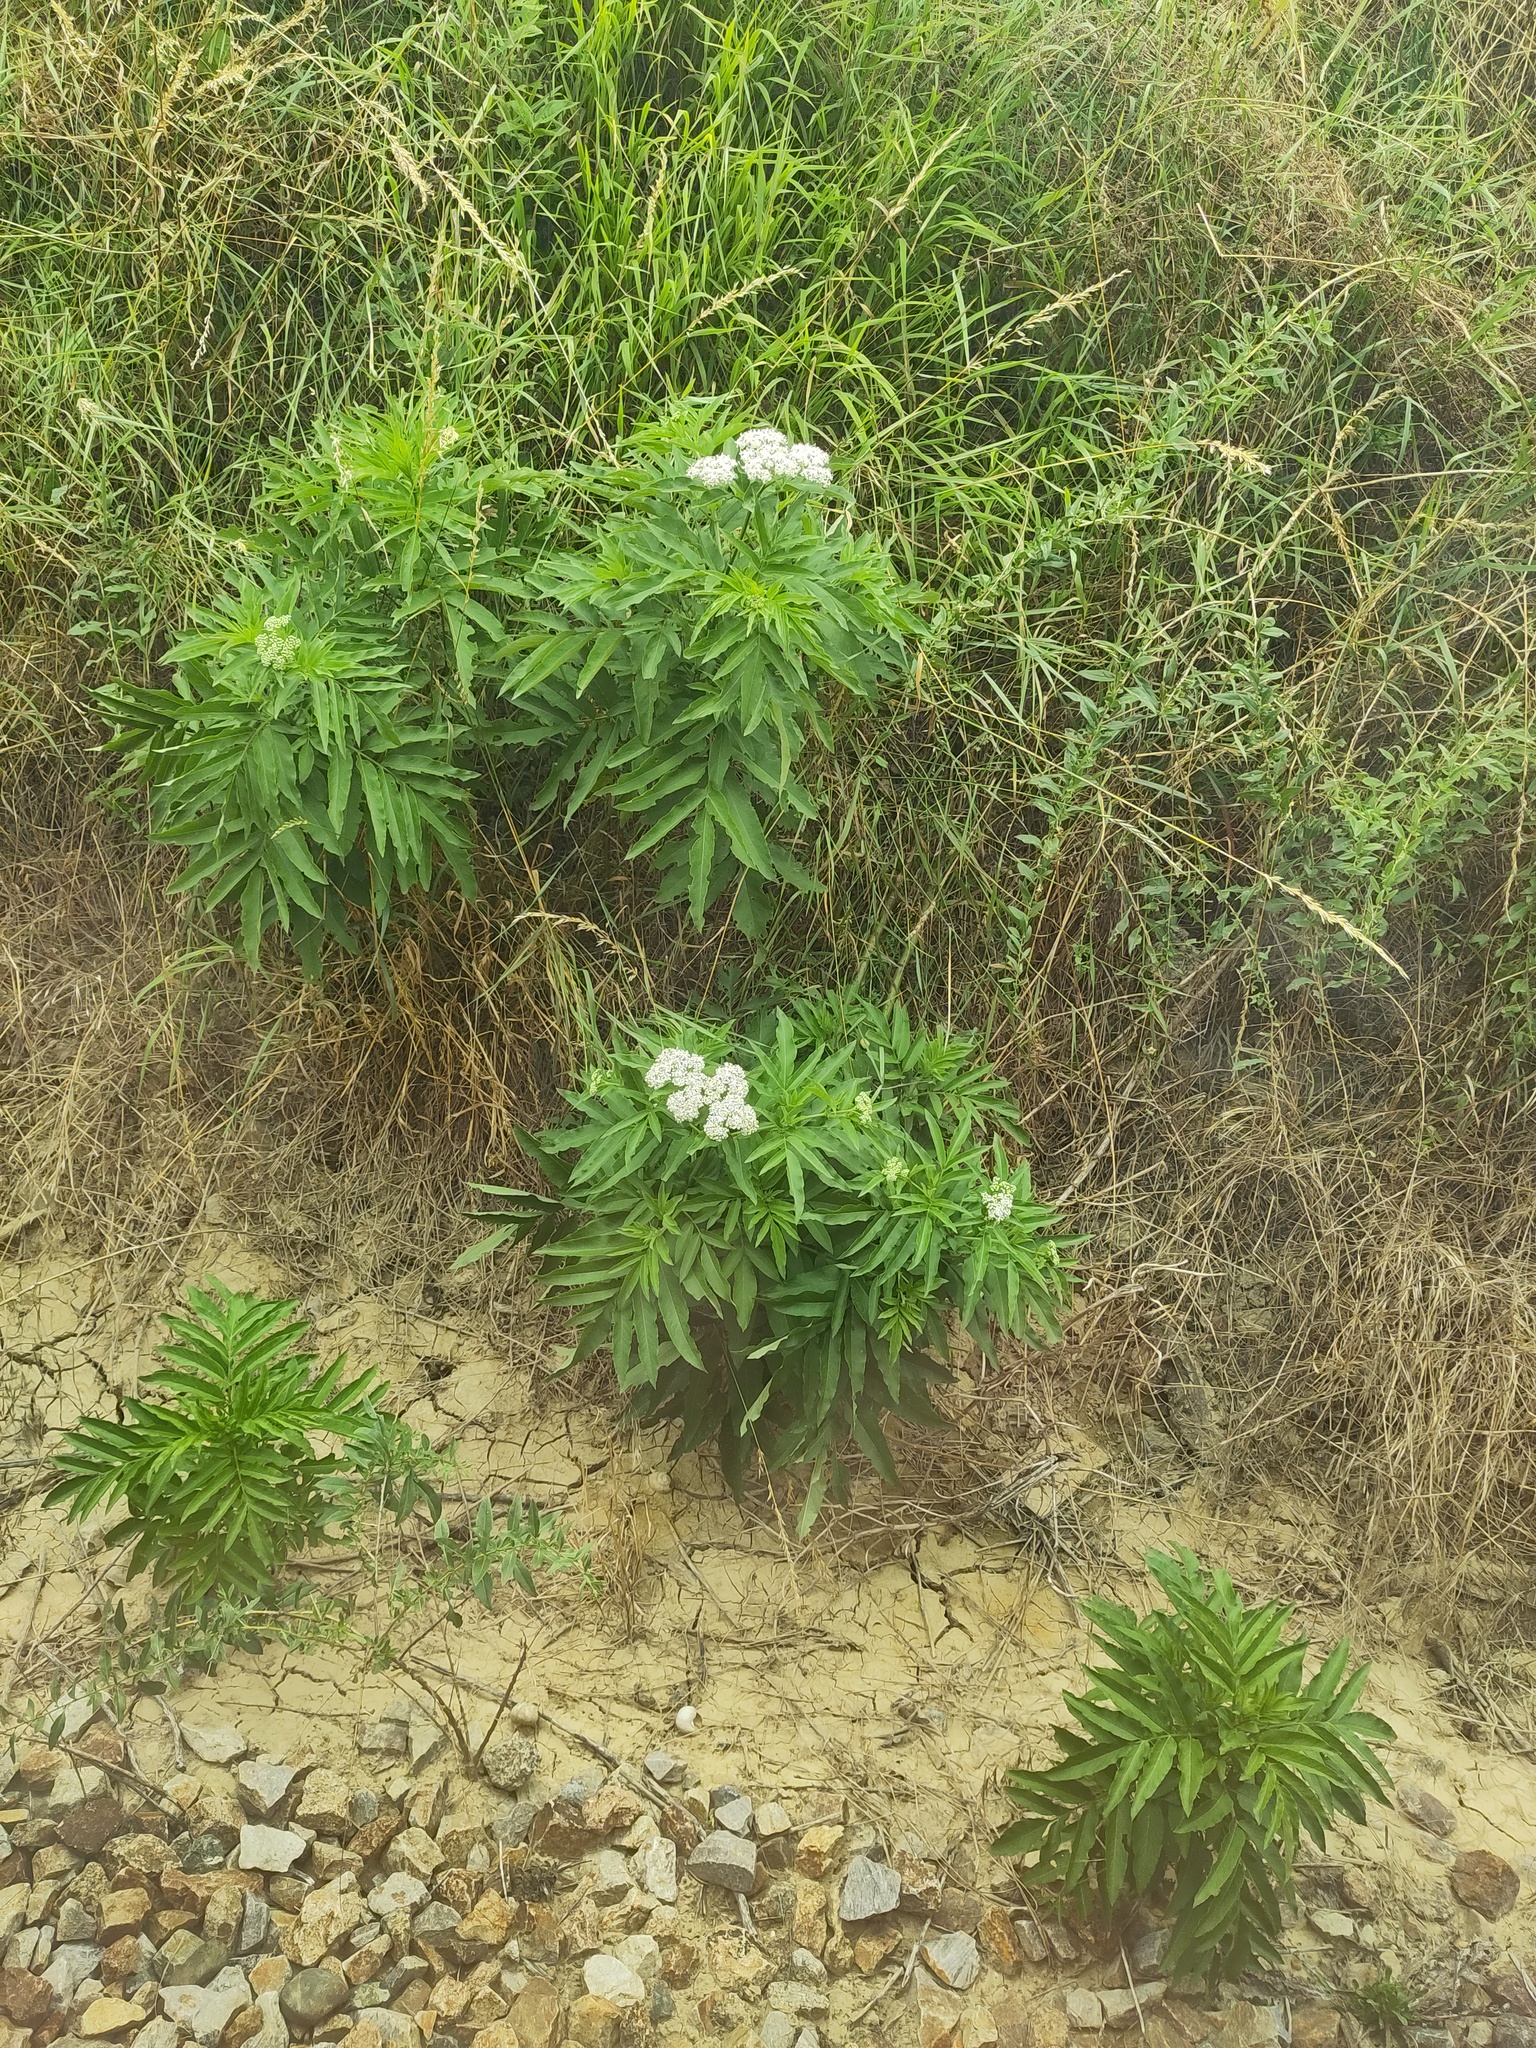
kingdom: Plantae
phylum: Tracheophyta
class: Magnoliopsida
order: Dipsacales
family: Viburnaceae
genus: Sambucus
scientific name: Sambucus ebulus
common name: Dwarf elder
